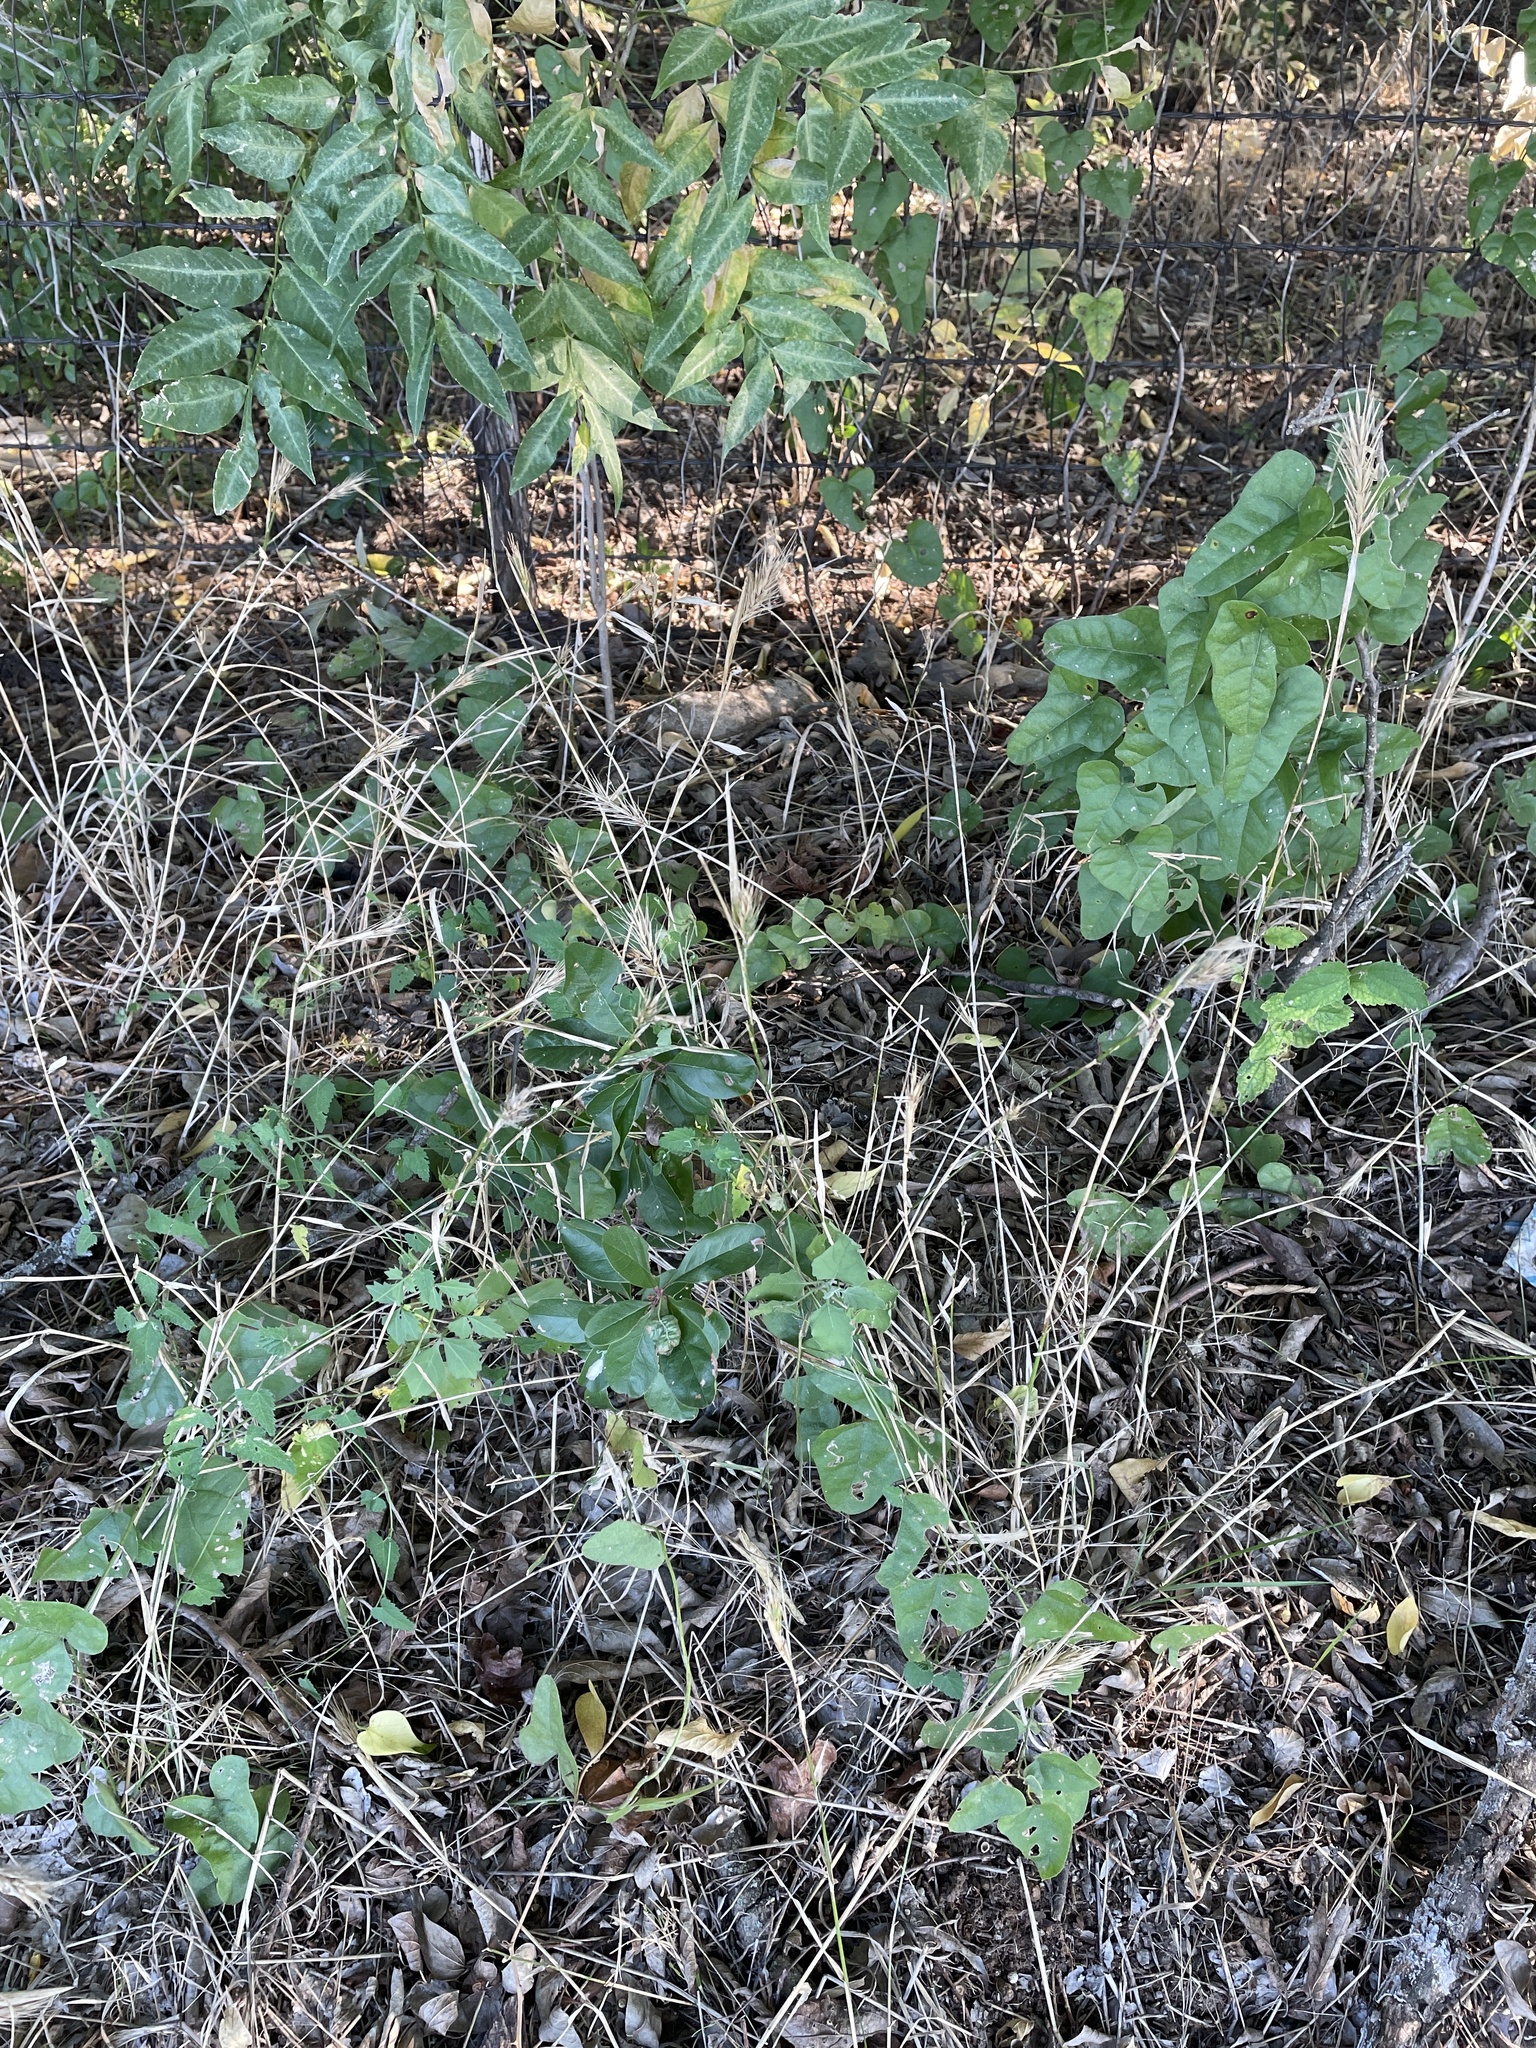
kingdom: Plantae
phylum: Tracheophyta
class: Liliopsida
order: Poales
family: Poaceae
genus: Elymus
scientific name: Elymus virginicus
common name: Common eastern wildrye
